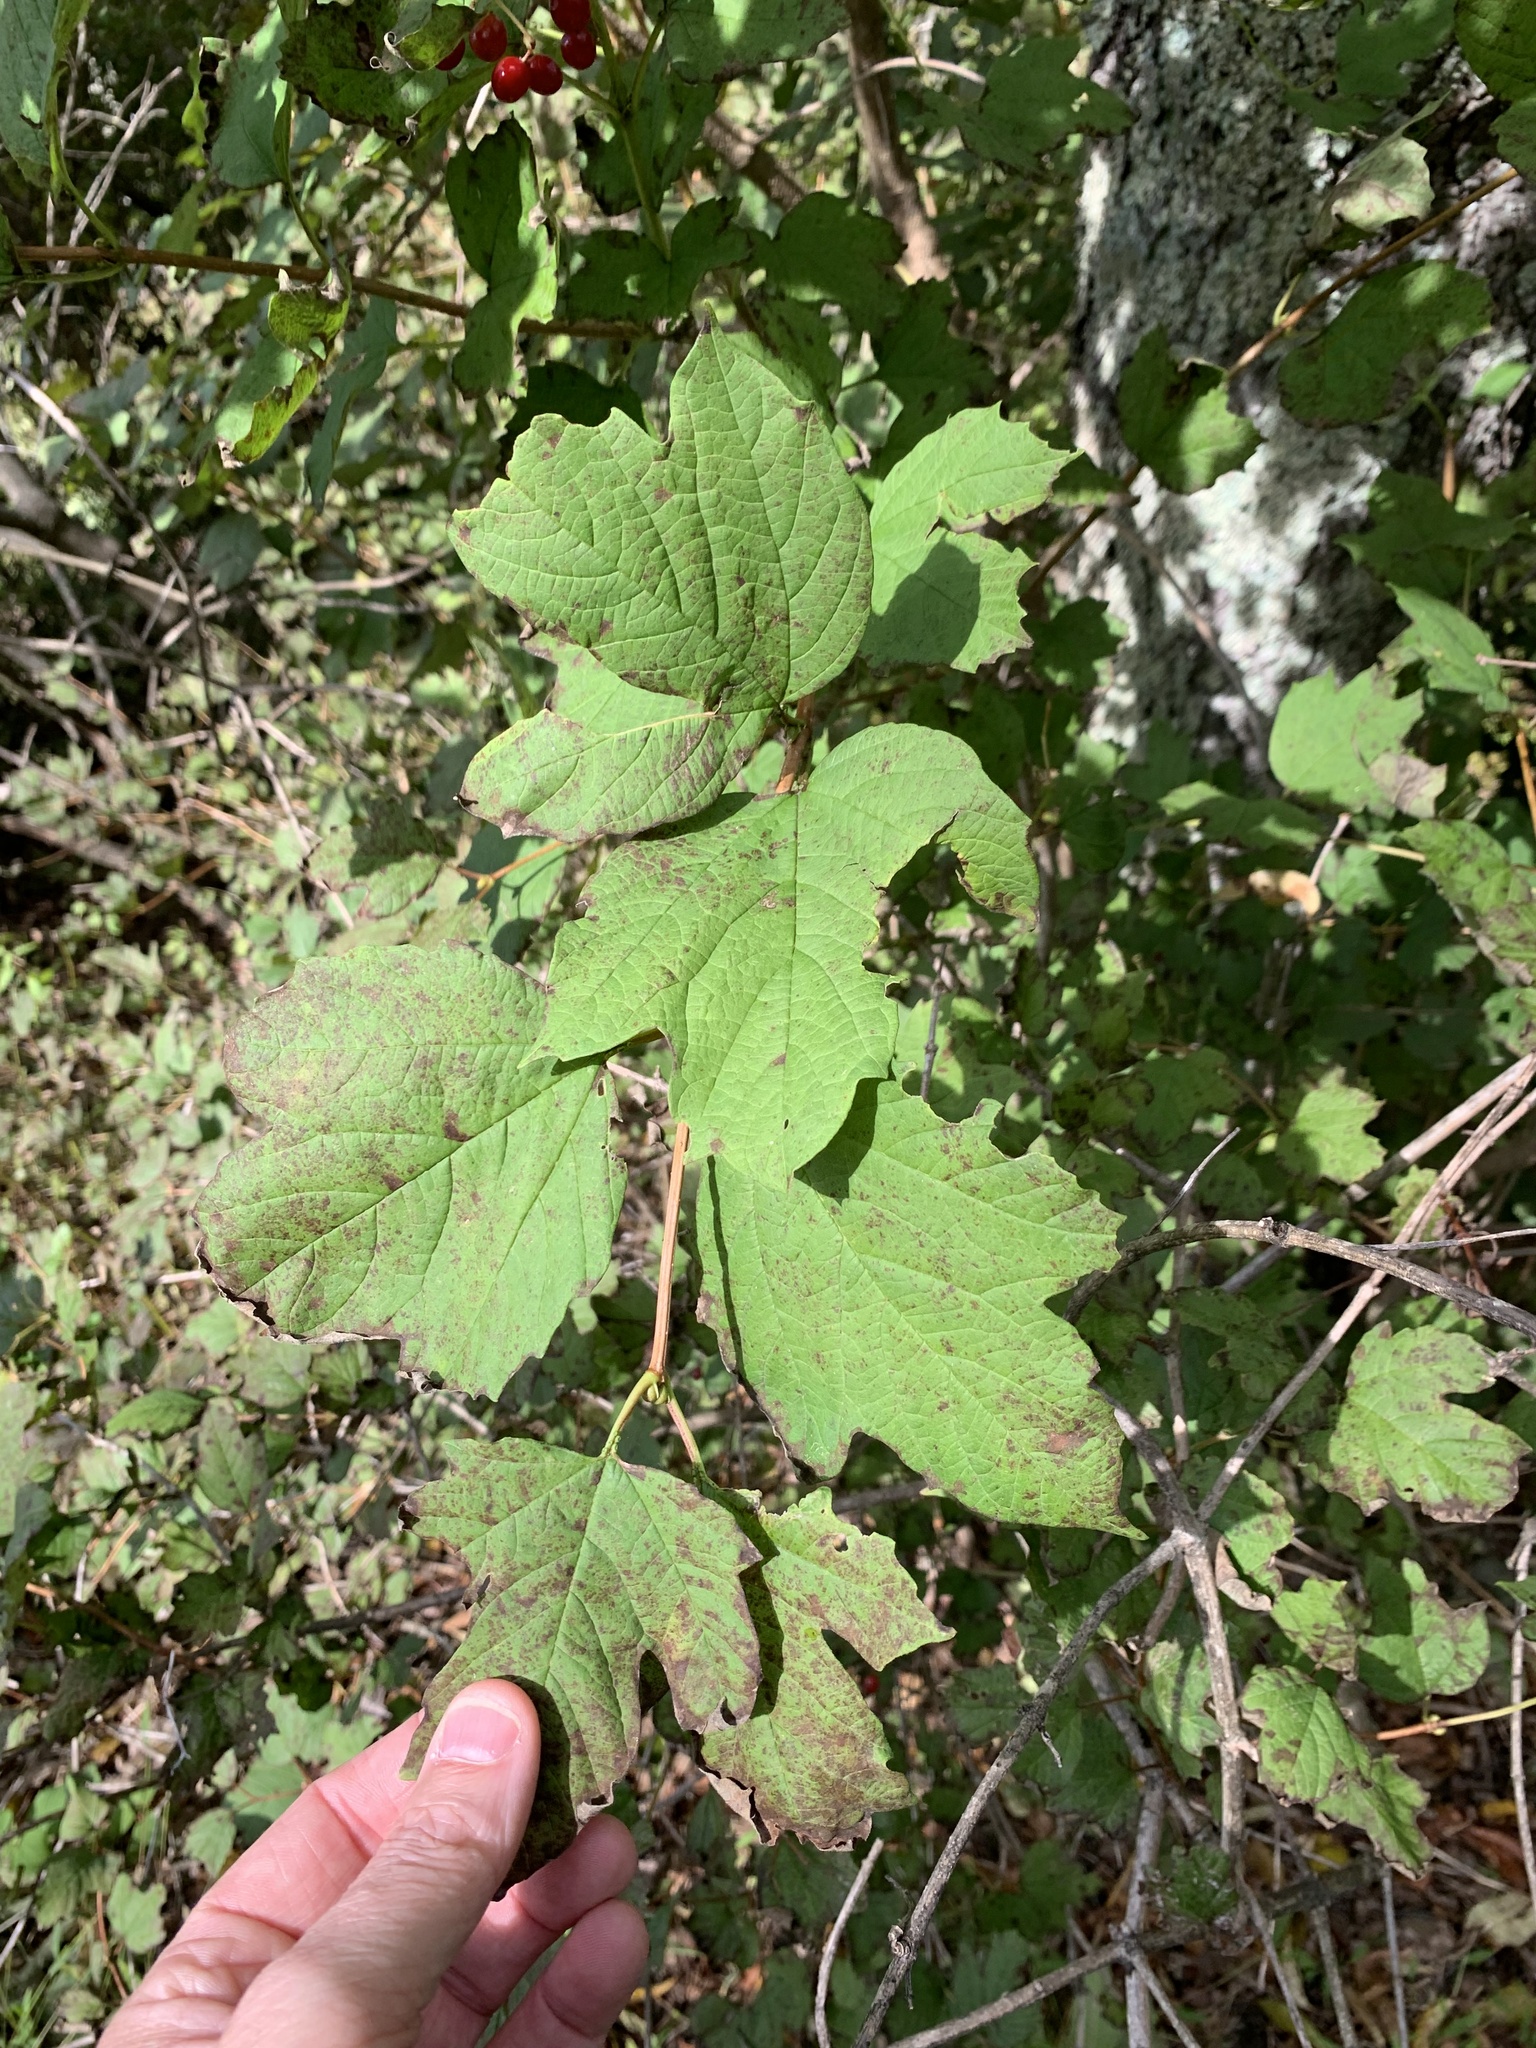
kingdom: Plantae
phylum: Tracheophyta
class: Magnoliopsida
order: Dipsacales
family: Viburnaceae
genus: Viburnum
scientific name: Viburnum opulus
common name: Guelder-rose
